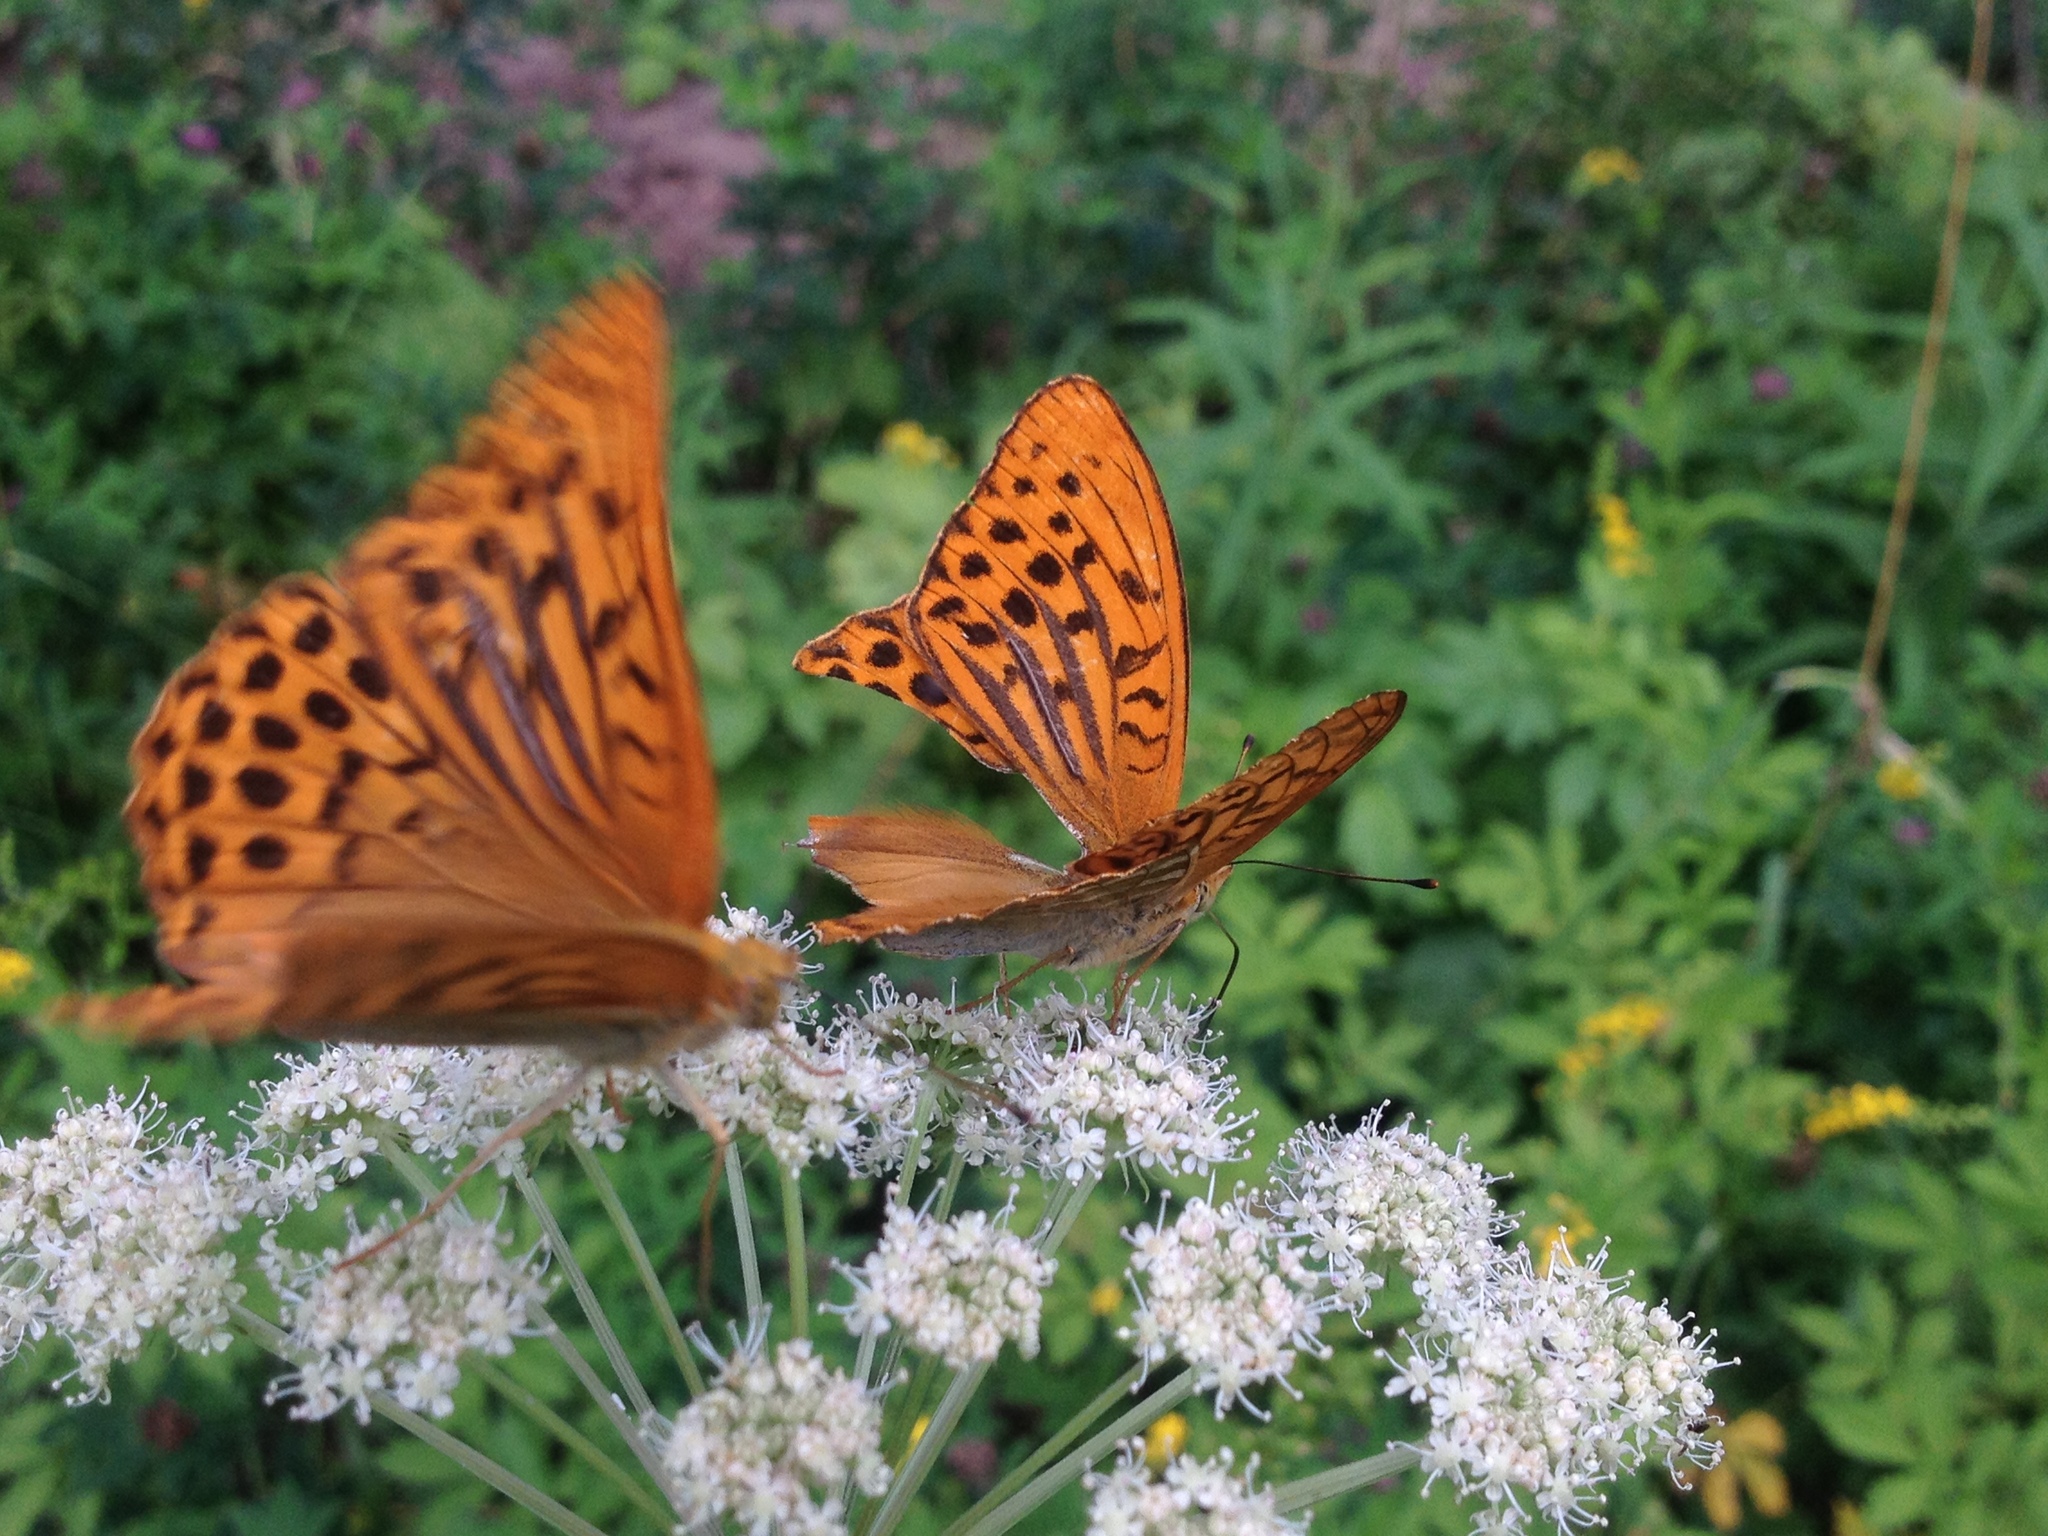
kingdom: Animalia
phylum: Arthropoda
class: Insecta
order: Lepidoptera
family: Nymphalidae
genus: Argynnis
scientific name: Argynnis paphia
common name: Silver-washed fritillary
